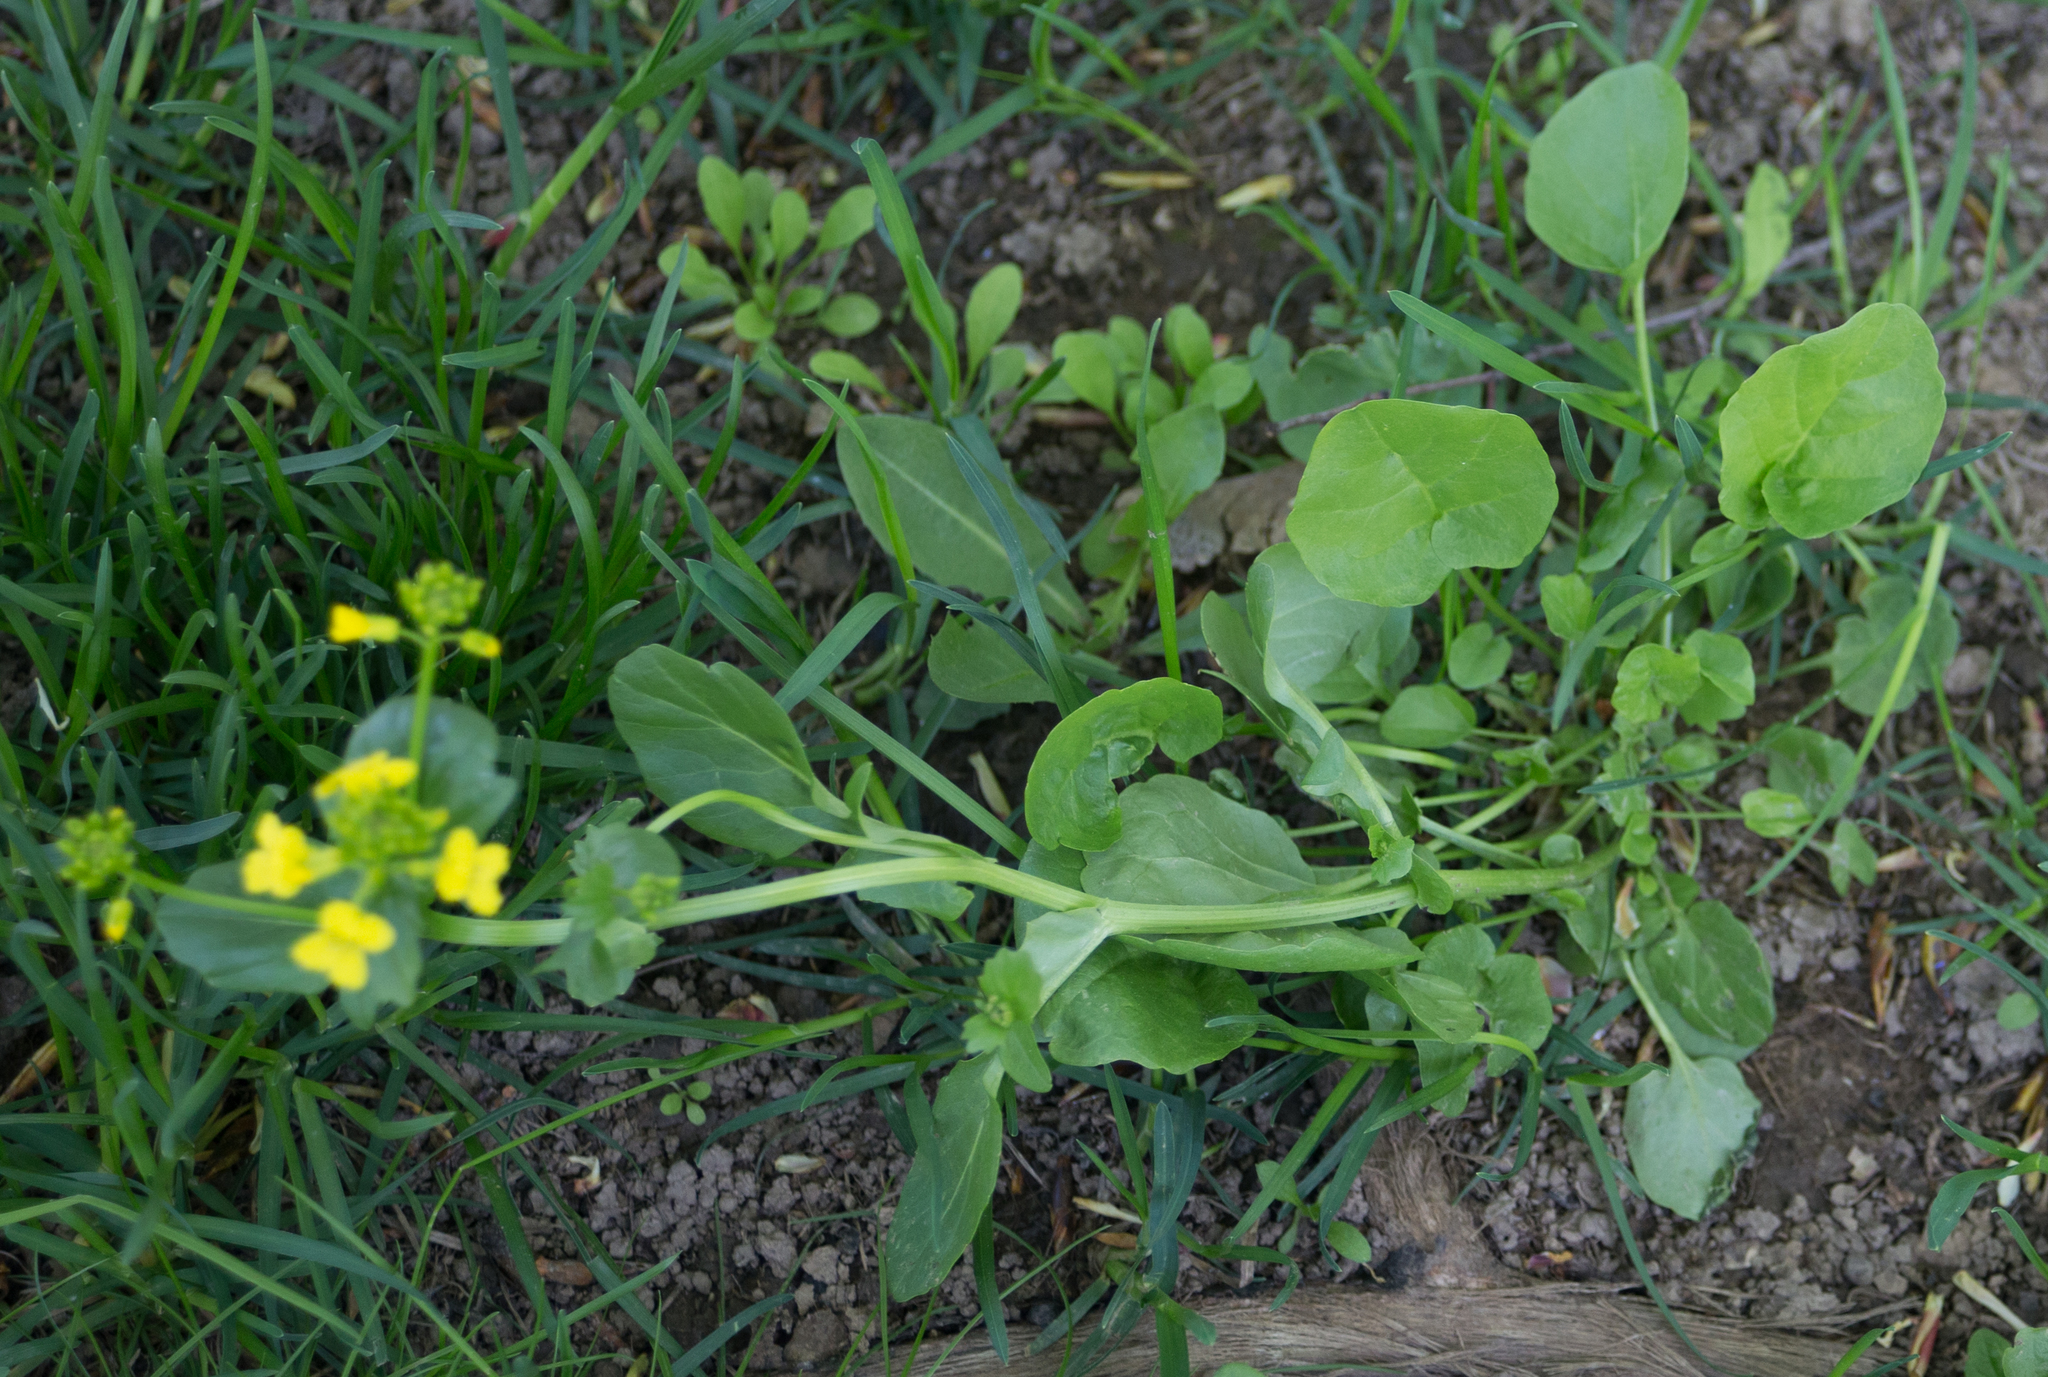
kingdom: Plantae
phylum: Tracheophyta
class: Magnoliopsida
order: Brassicales
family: Brassicaceae
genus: Barbarea
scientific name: Barbarea vulgaris
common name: Cressy-greens
